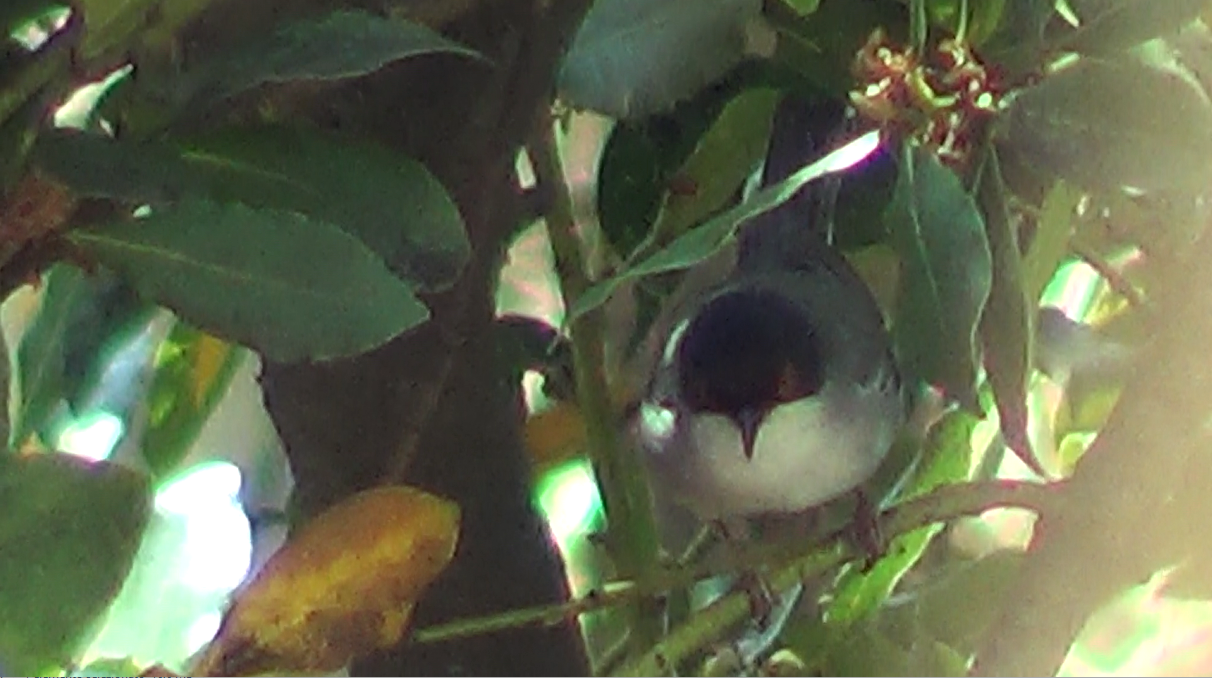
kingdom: Animalia
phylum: Chordata
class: Aves
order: Passeriformes
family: Sylviidae
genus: Curruca
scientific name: Curruca melanocephala
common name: Sardinian warbler
